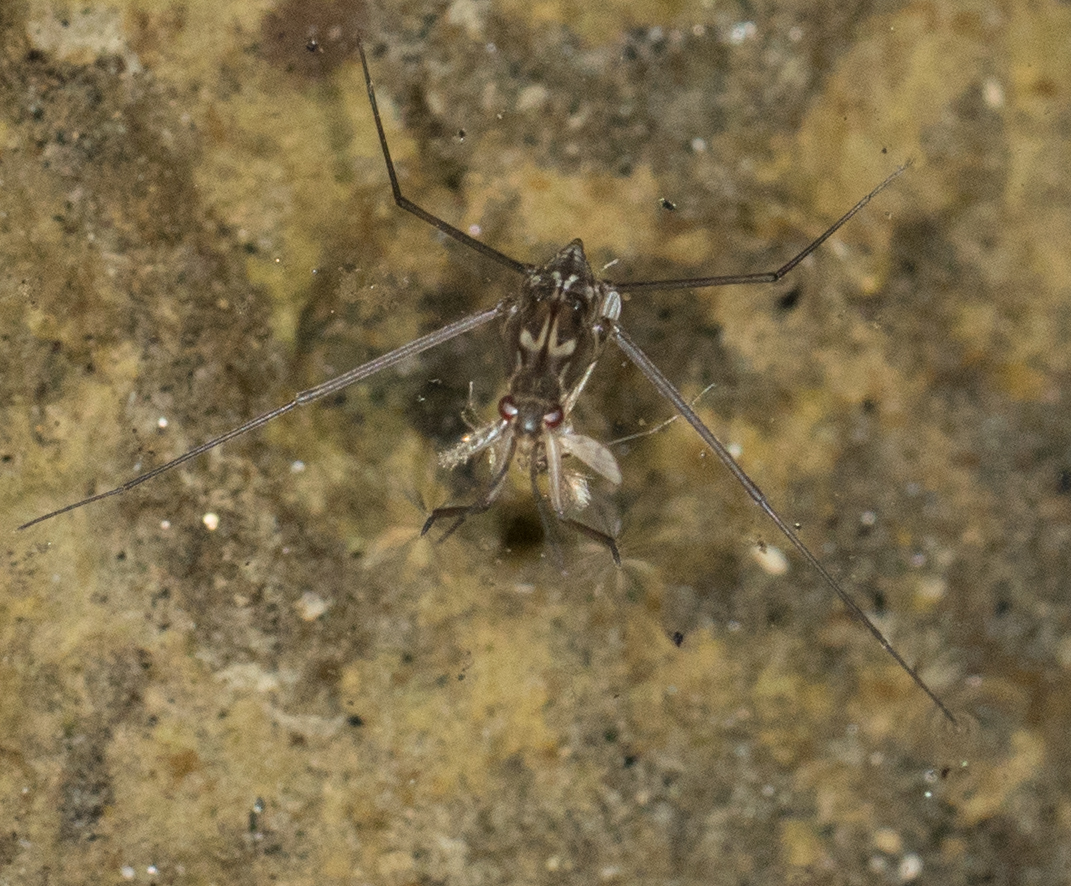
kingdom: Animalia
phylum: Arthropoda
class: Insecta
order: Hemiptera
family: Gerridae
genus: Aquarius
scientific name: Aquarius remigis
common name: Common water strider
